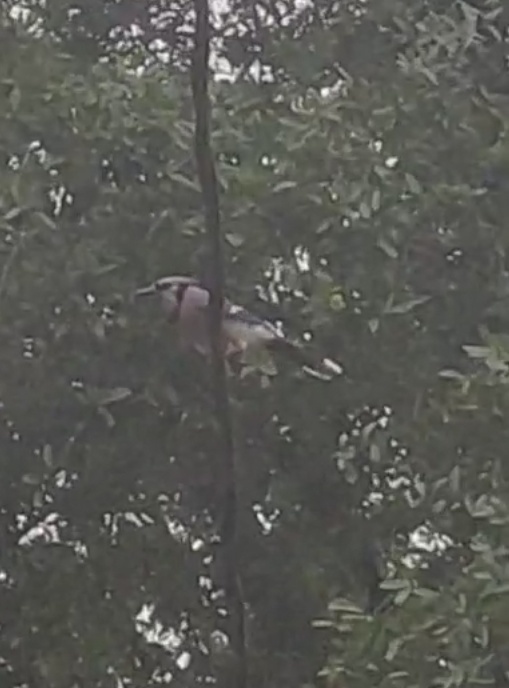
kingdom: Animalia
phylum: Chordata
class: Aves
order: Passeriformes
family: Corvidae
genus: Cyanocitta
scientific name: Cyanocitta cristata
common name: Blue jay
